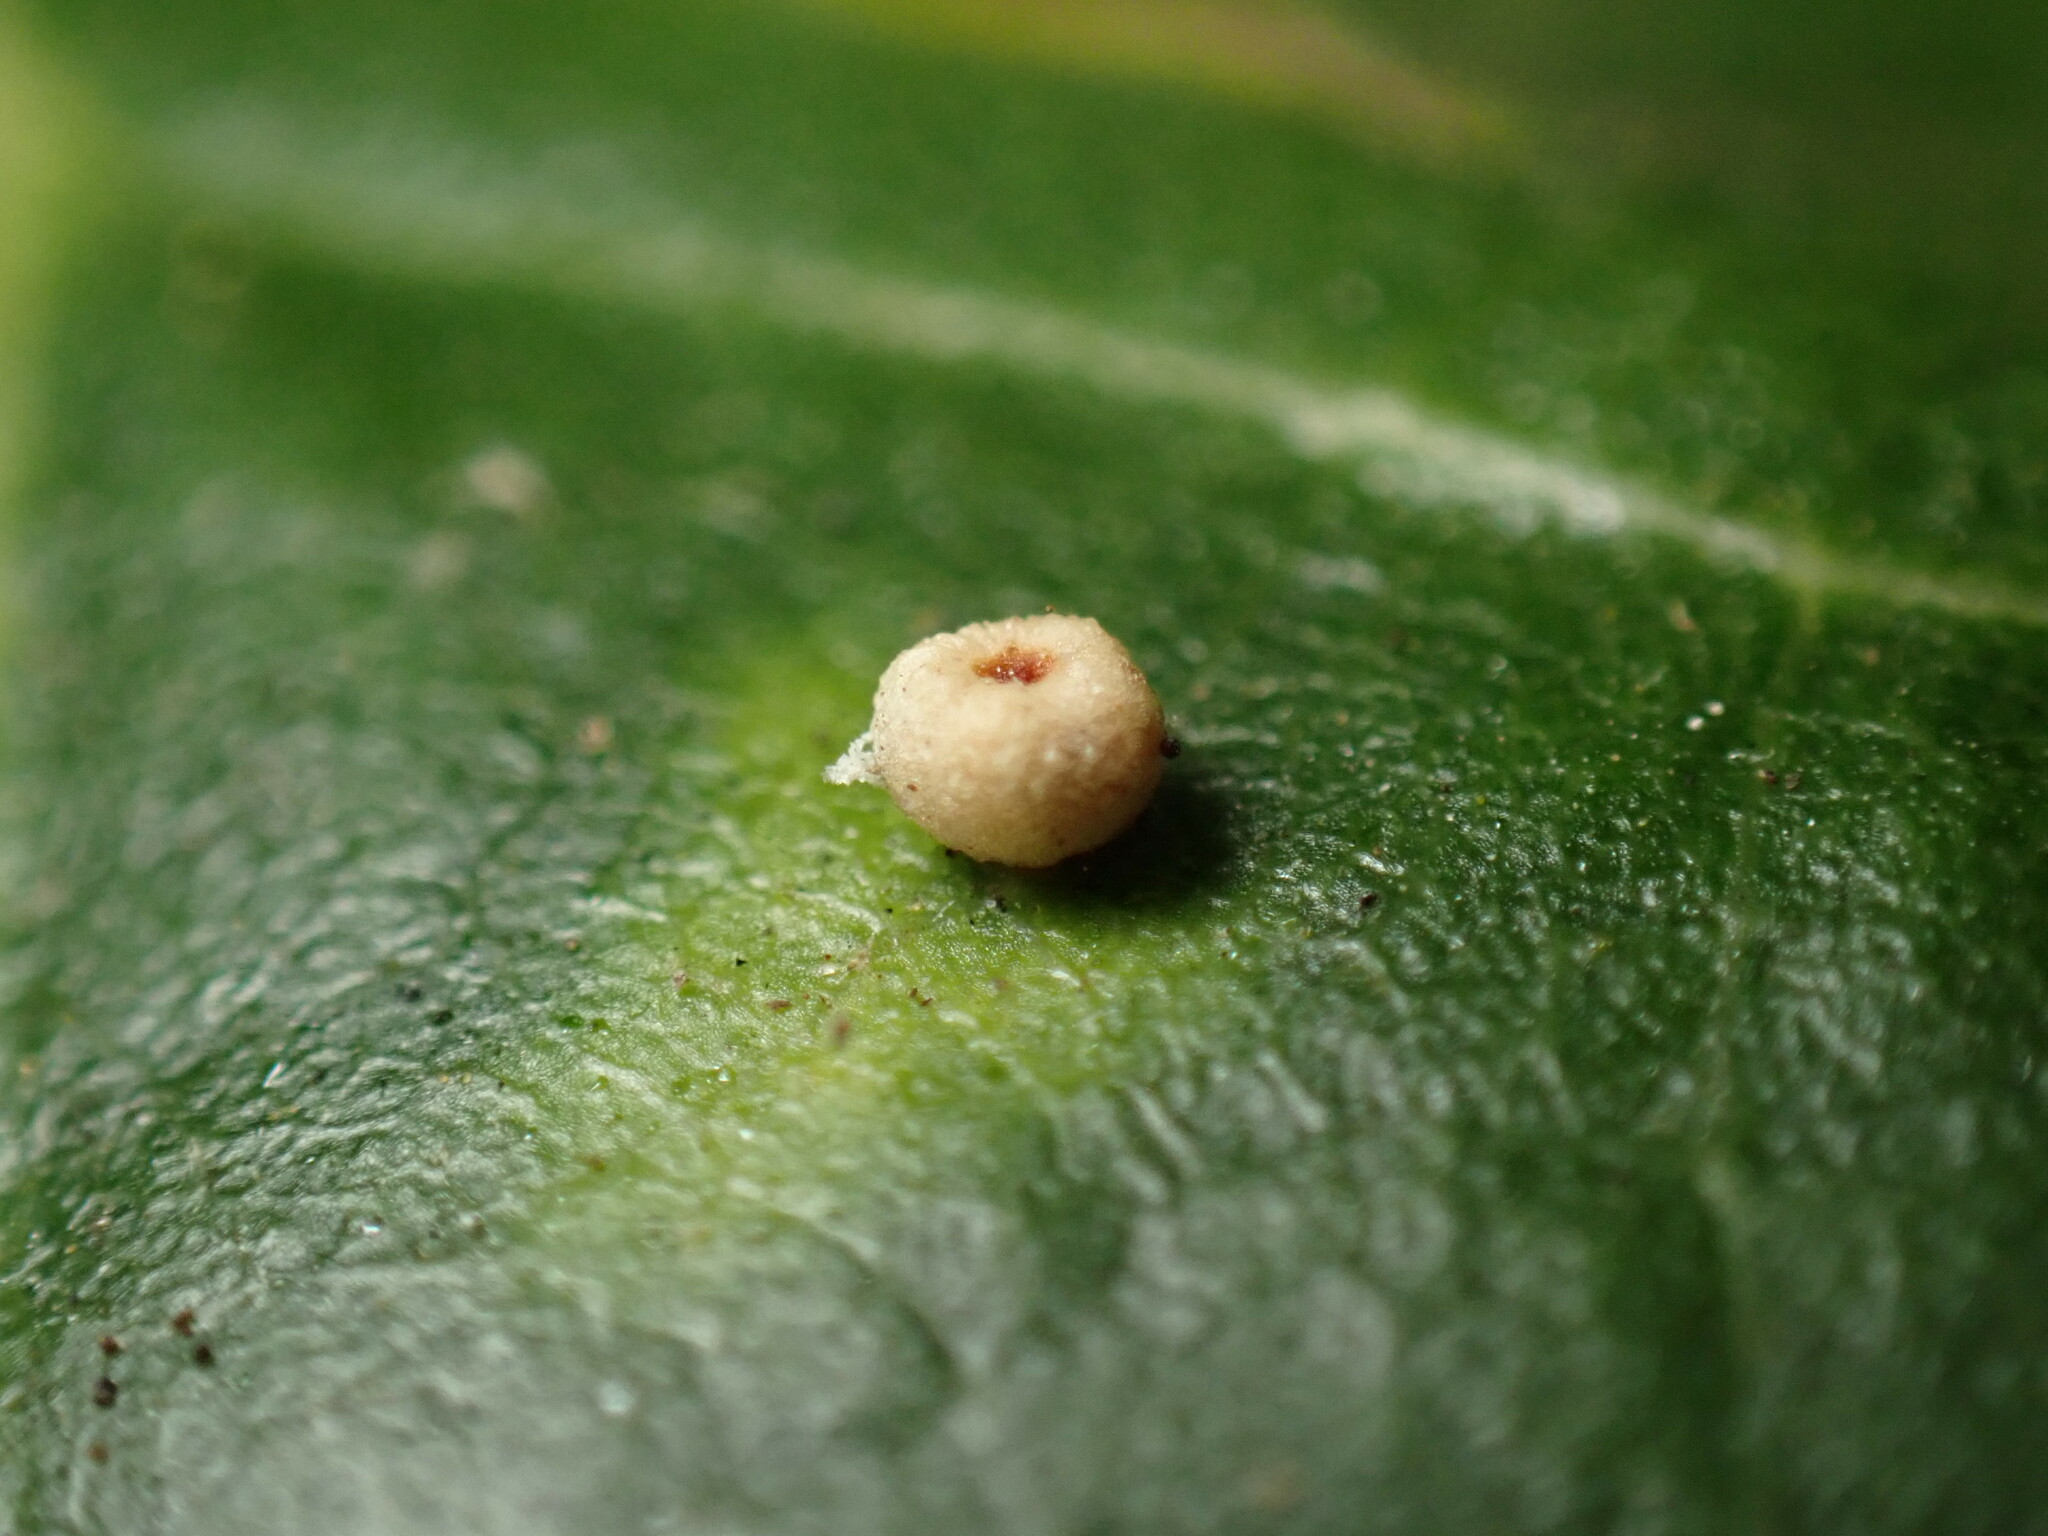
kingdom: Animalia
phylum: Arthropoda
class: Insecta
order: Hymenoptera
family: Cynipidae
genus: Dryocosmus
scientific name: Dryocosmus
